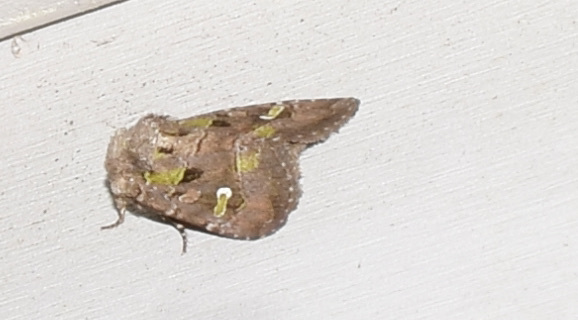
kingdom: Animalia
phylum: Arthropoda
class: Insecta
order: Lepidoptera
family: Noctuidae
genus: Lacinipolia
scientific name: Lacinipolia renigera
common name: Kidney-spotted minor
